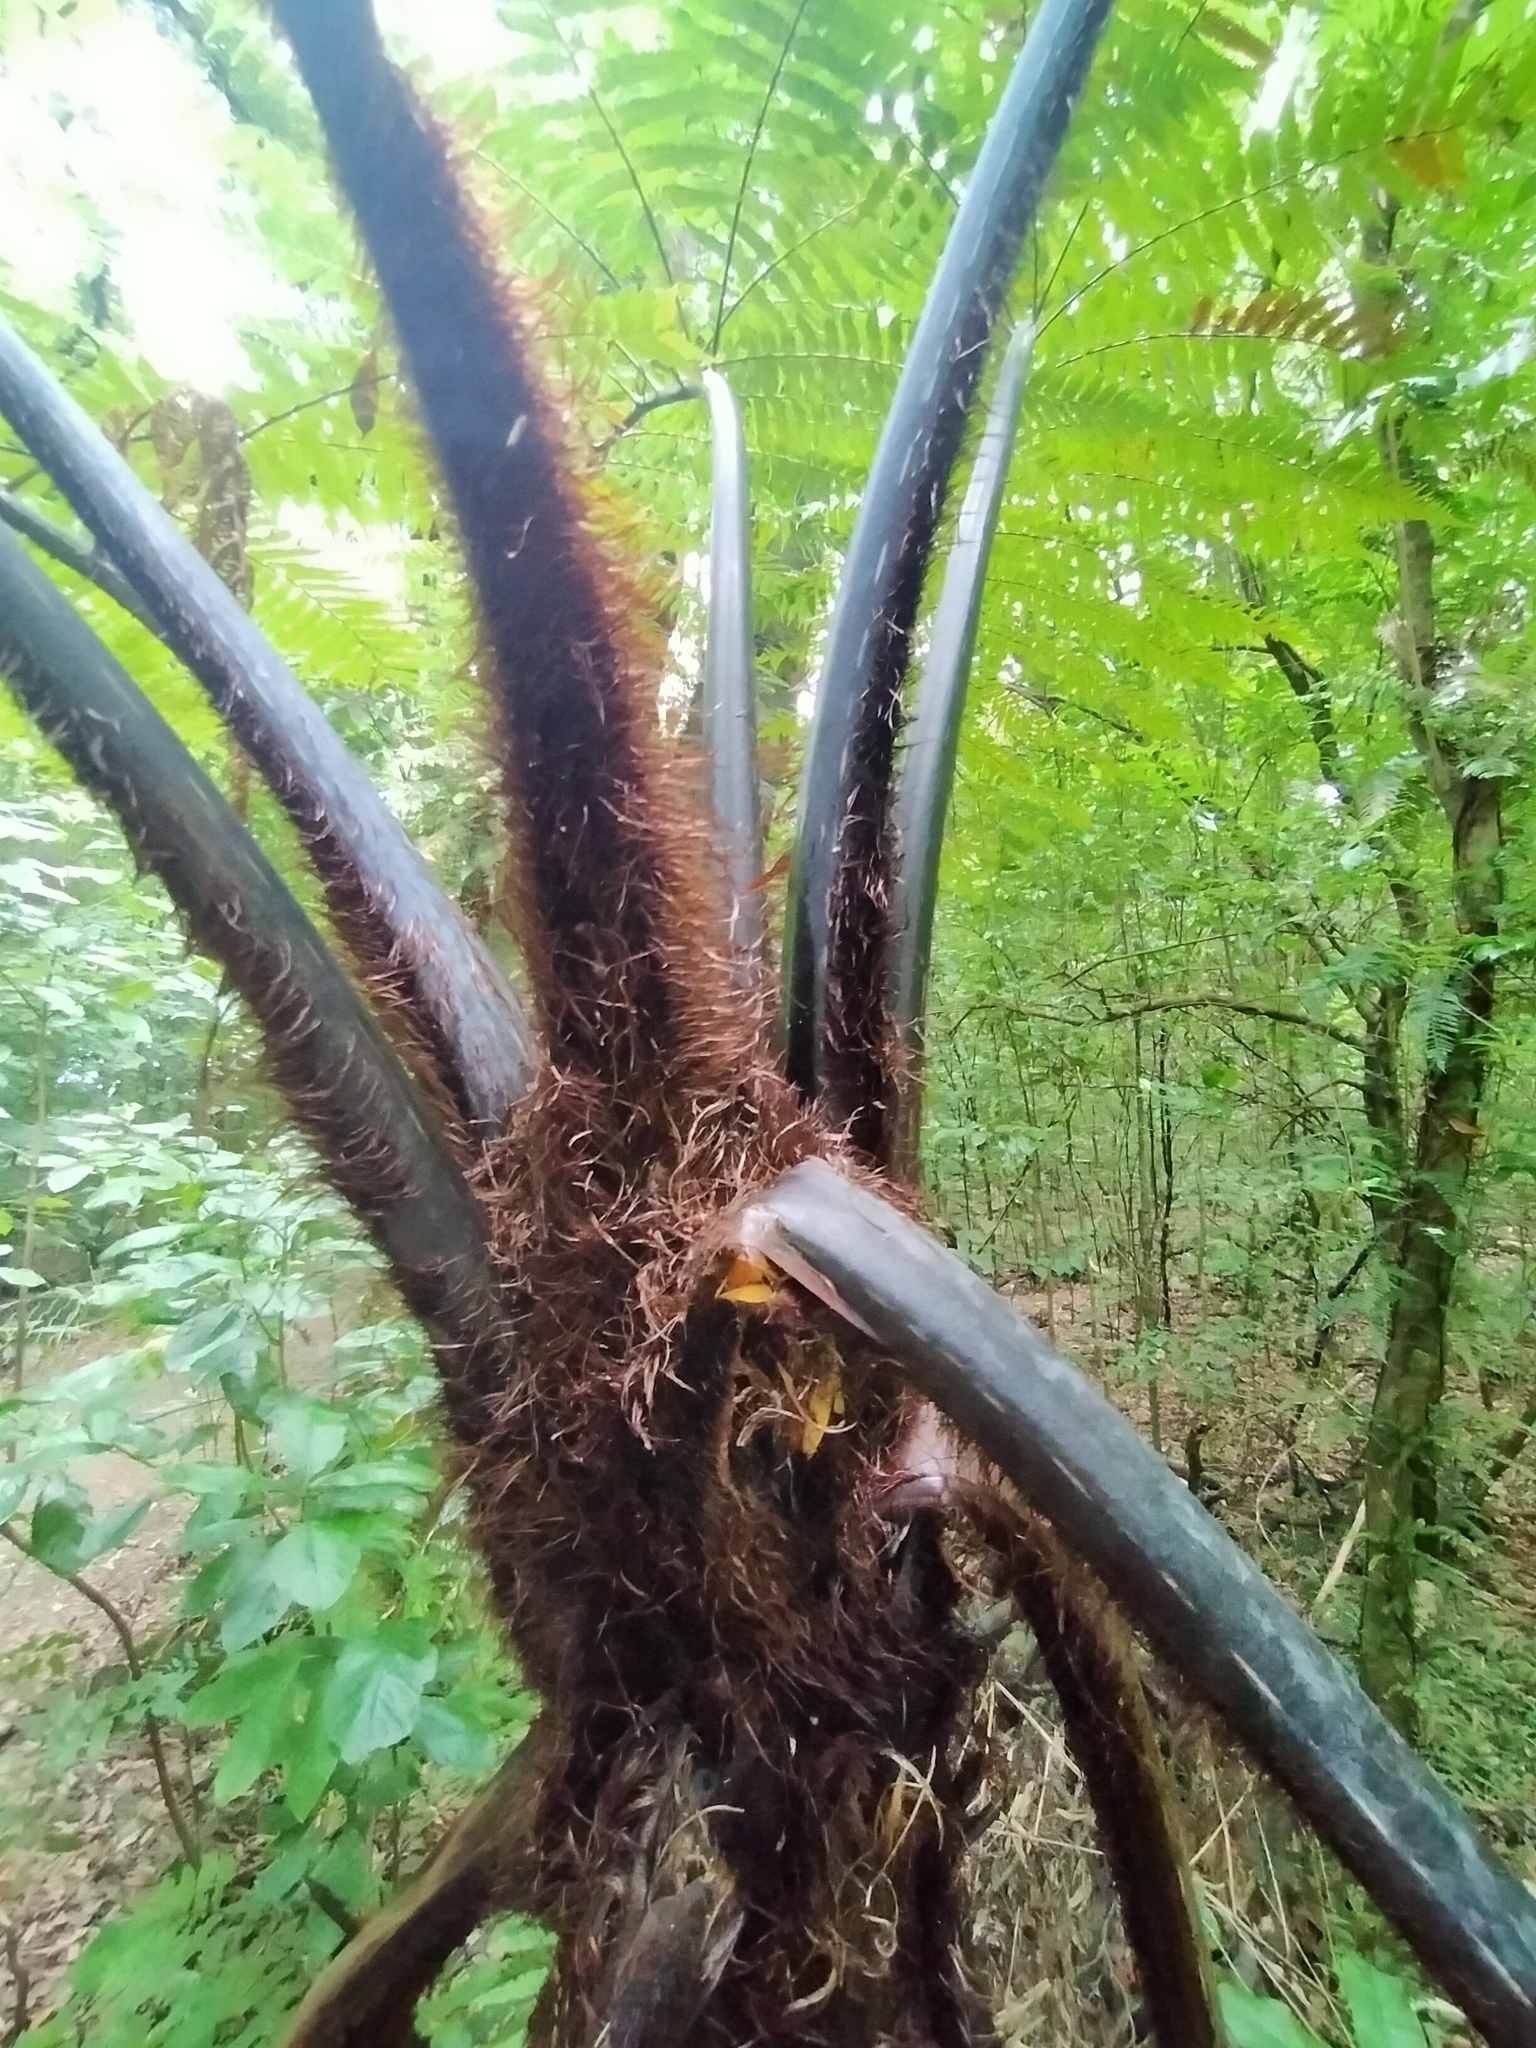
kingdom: Plantae
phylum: Tracheophyta
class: Polypodiopsida
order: Cyatheales
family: Cyatheaceae
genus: Sphaeropteris
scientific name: Sphaeropteris medullaris
